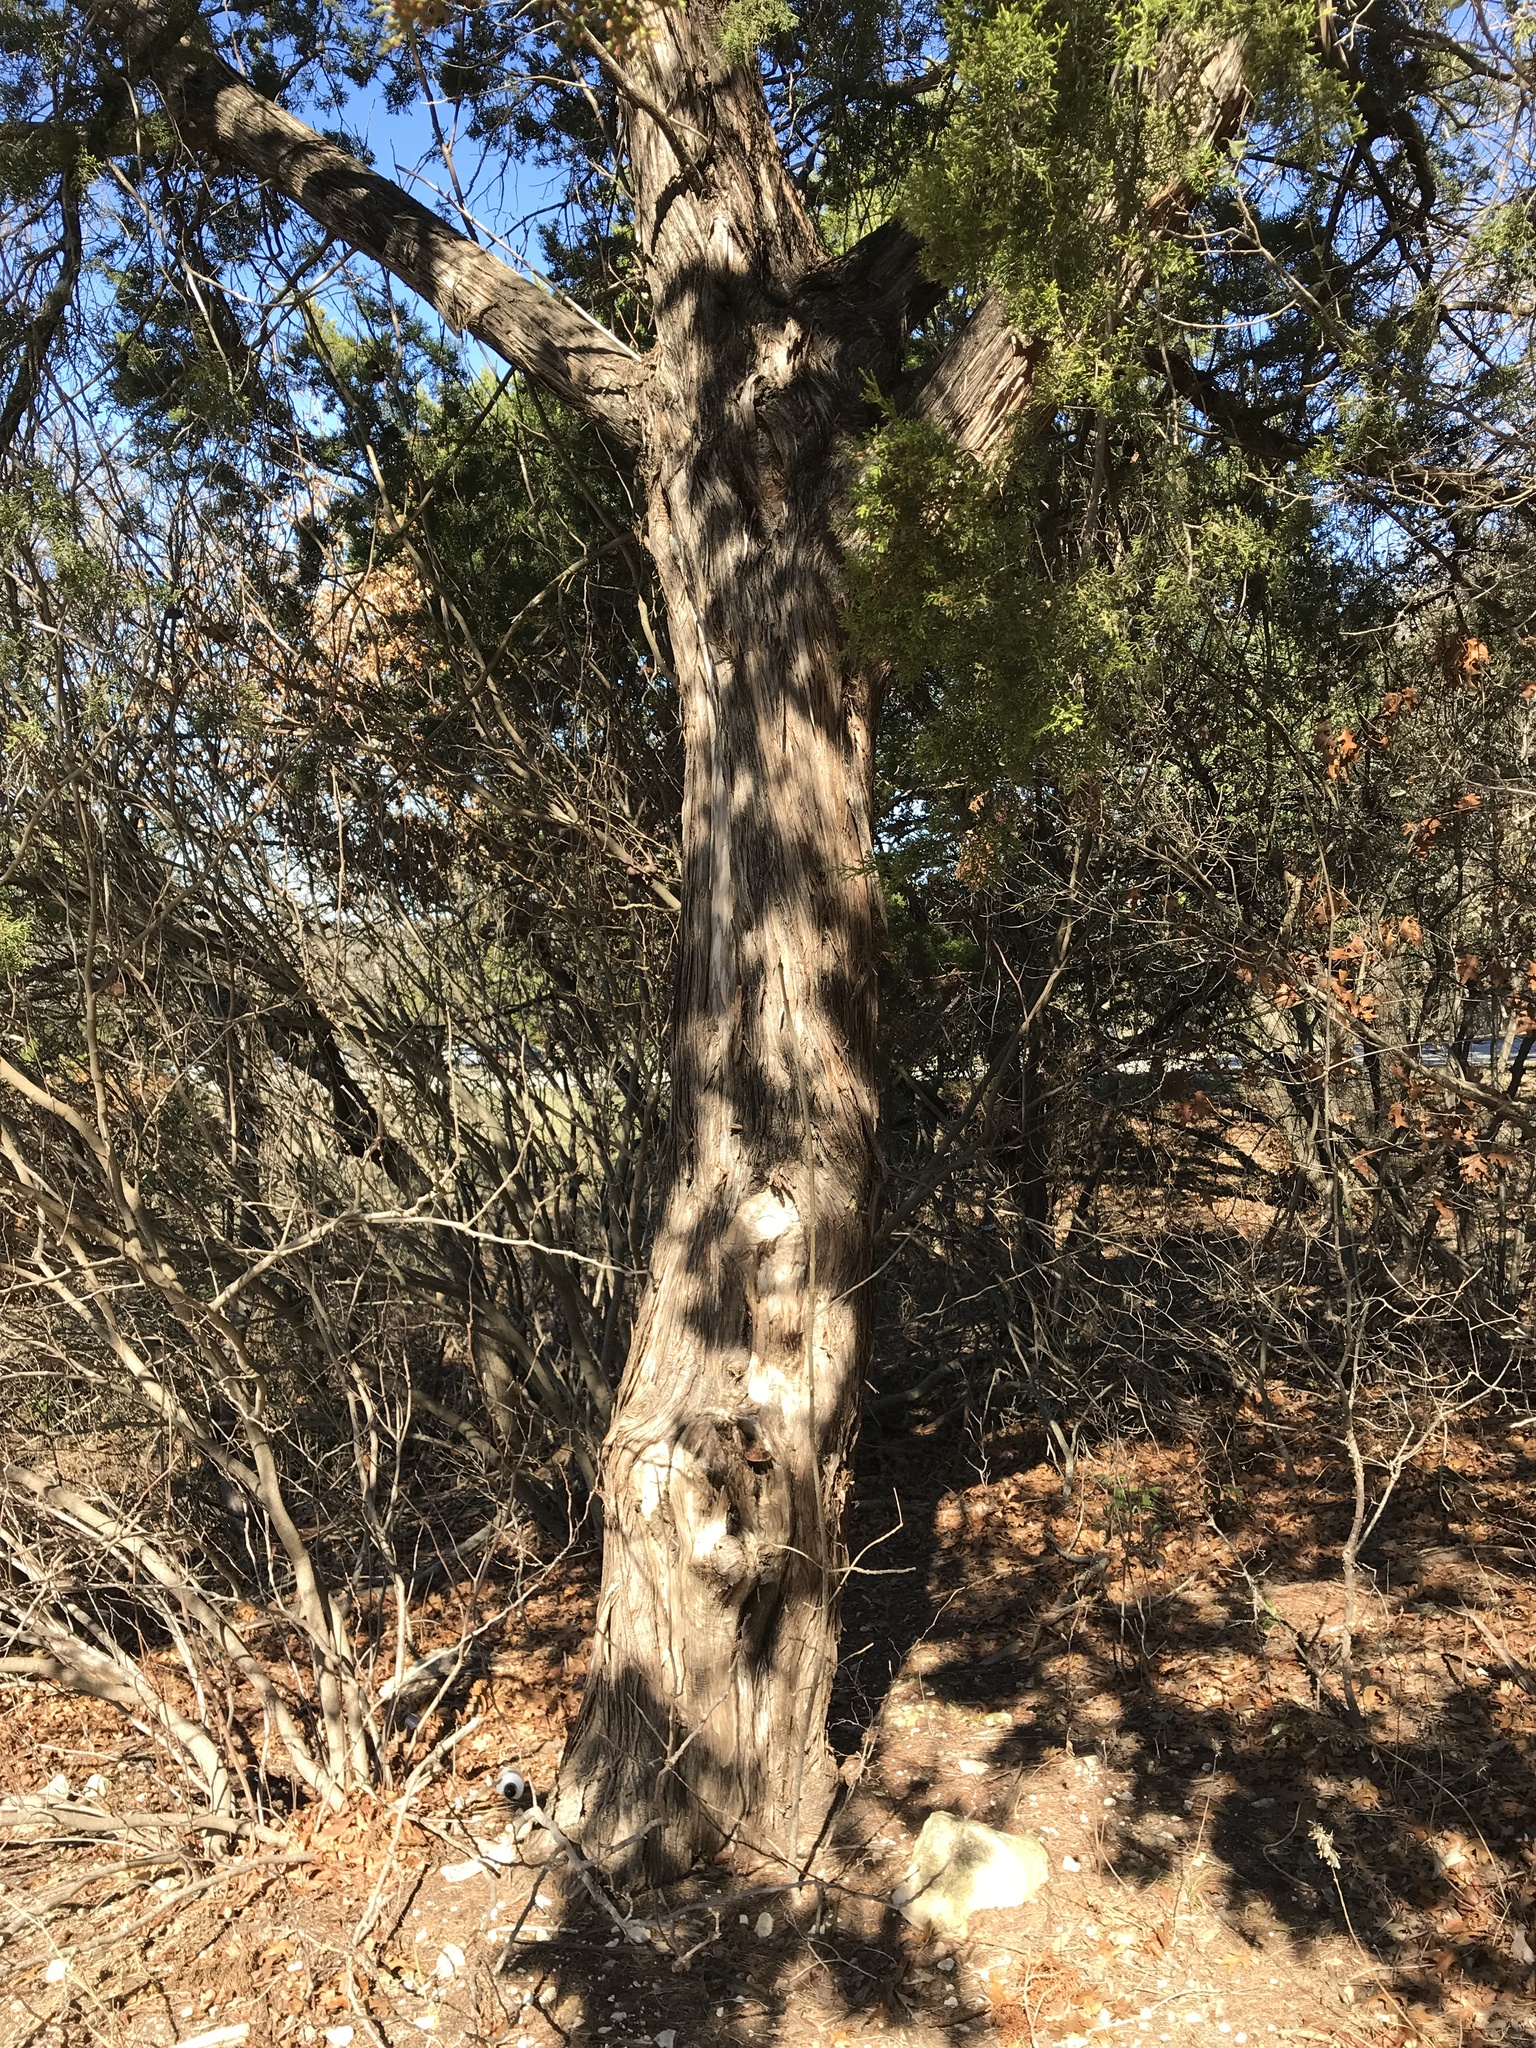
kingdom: Plantae
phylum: Tracheophyta
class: Pinopsida
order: Pinales
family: Cupressaceae
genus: Juniperus
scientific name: Juniperus ashei
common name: Mexican juniper
